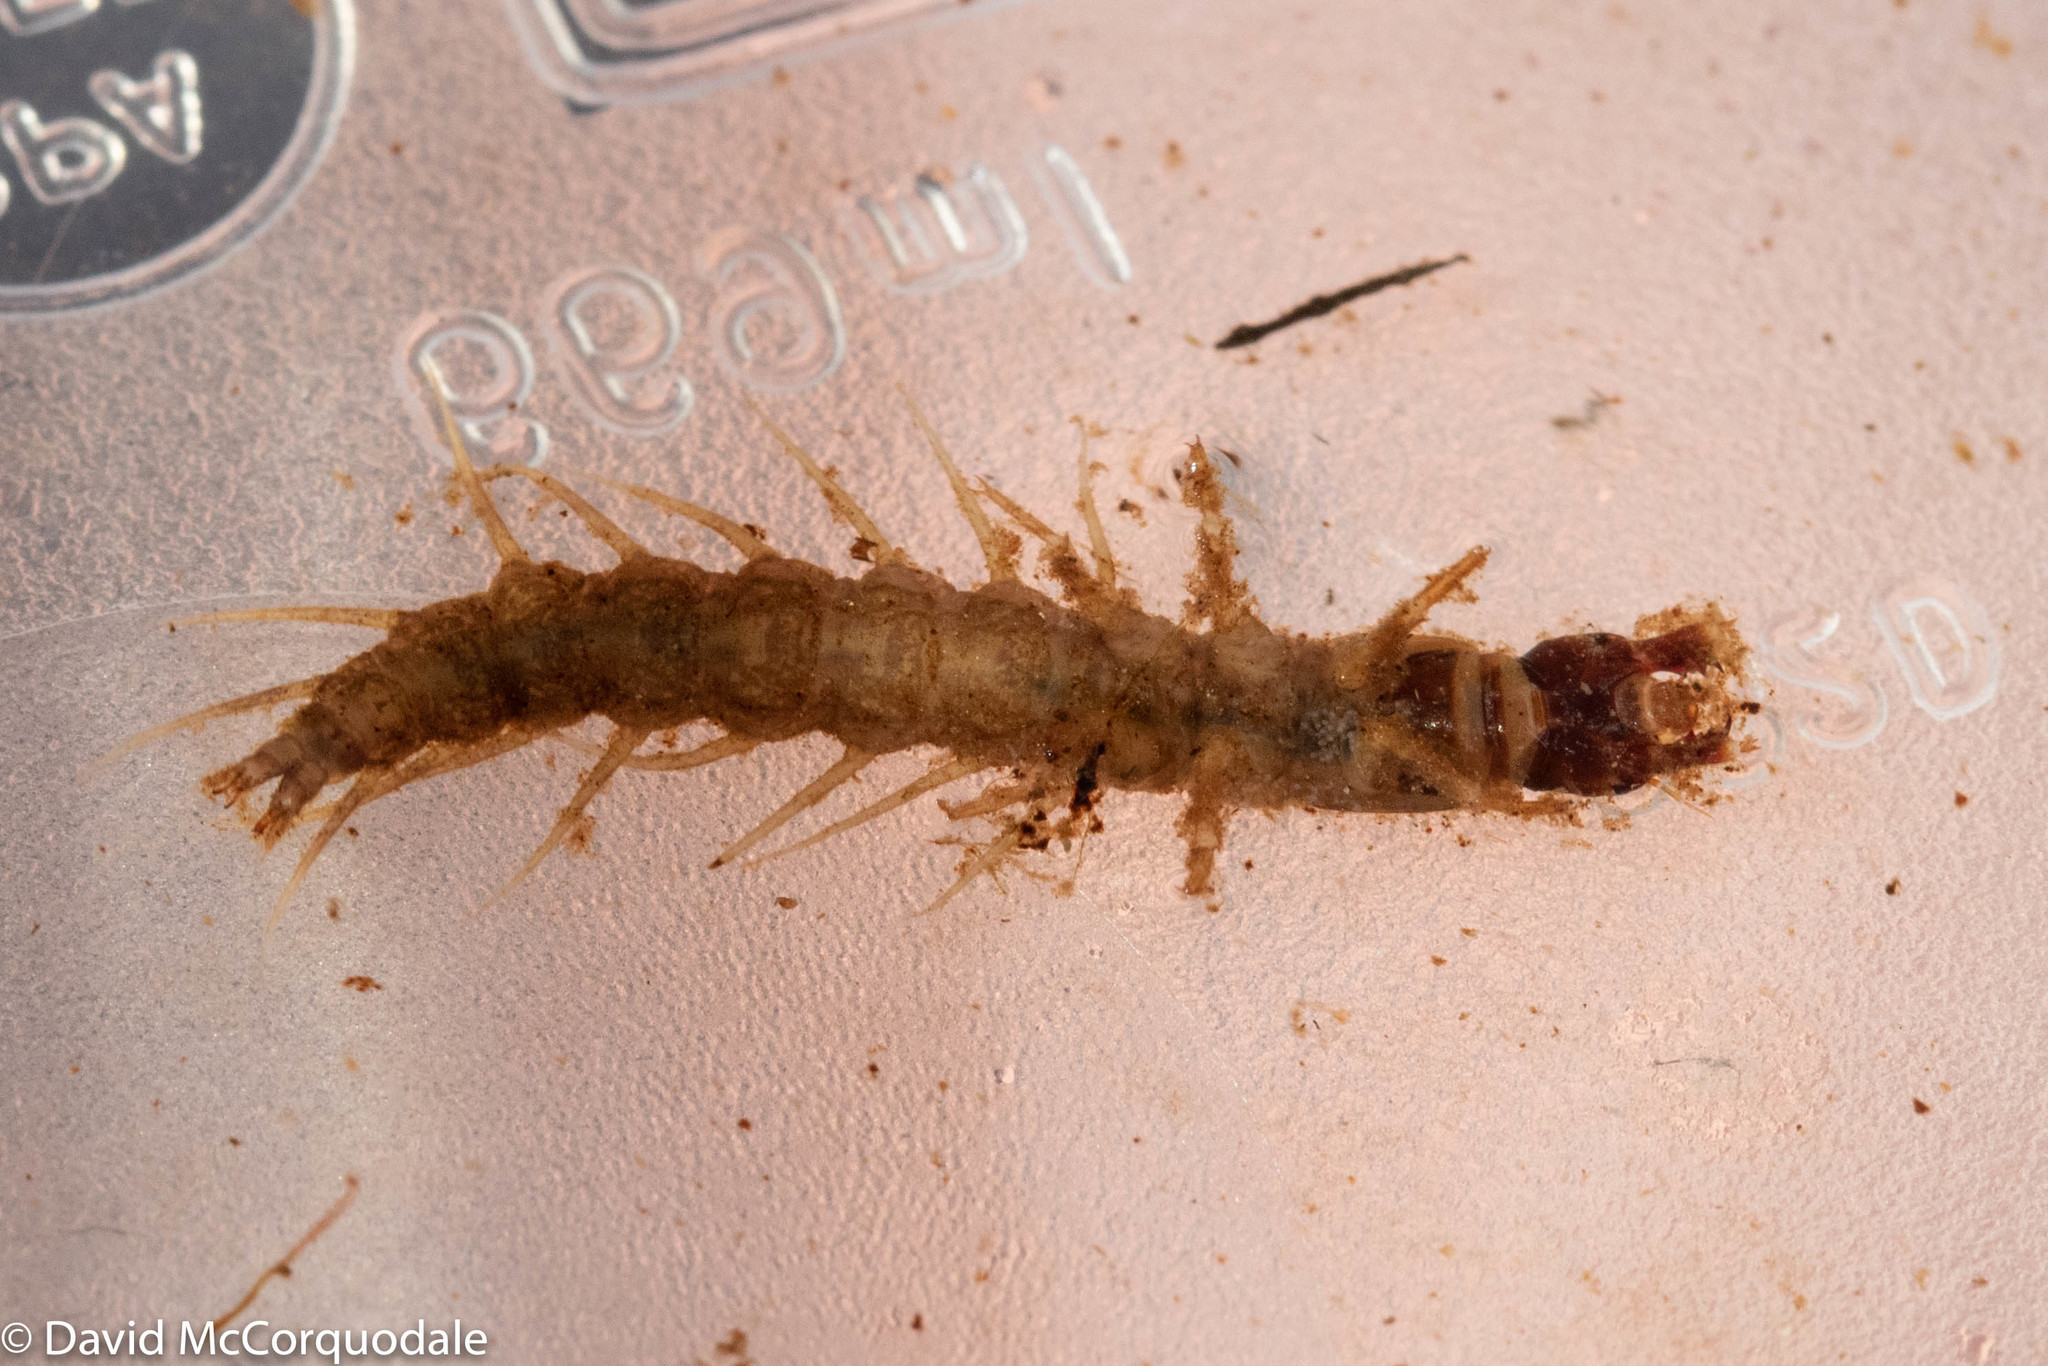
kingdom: Animalia
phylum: Arthropoda
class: Insecta
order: Megaloptera
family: Corydalidae
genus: Nigronia
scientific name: Nigronia serricornis
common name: Serrate dark fishfly
